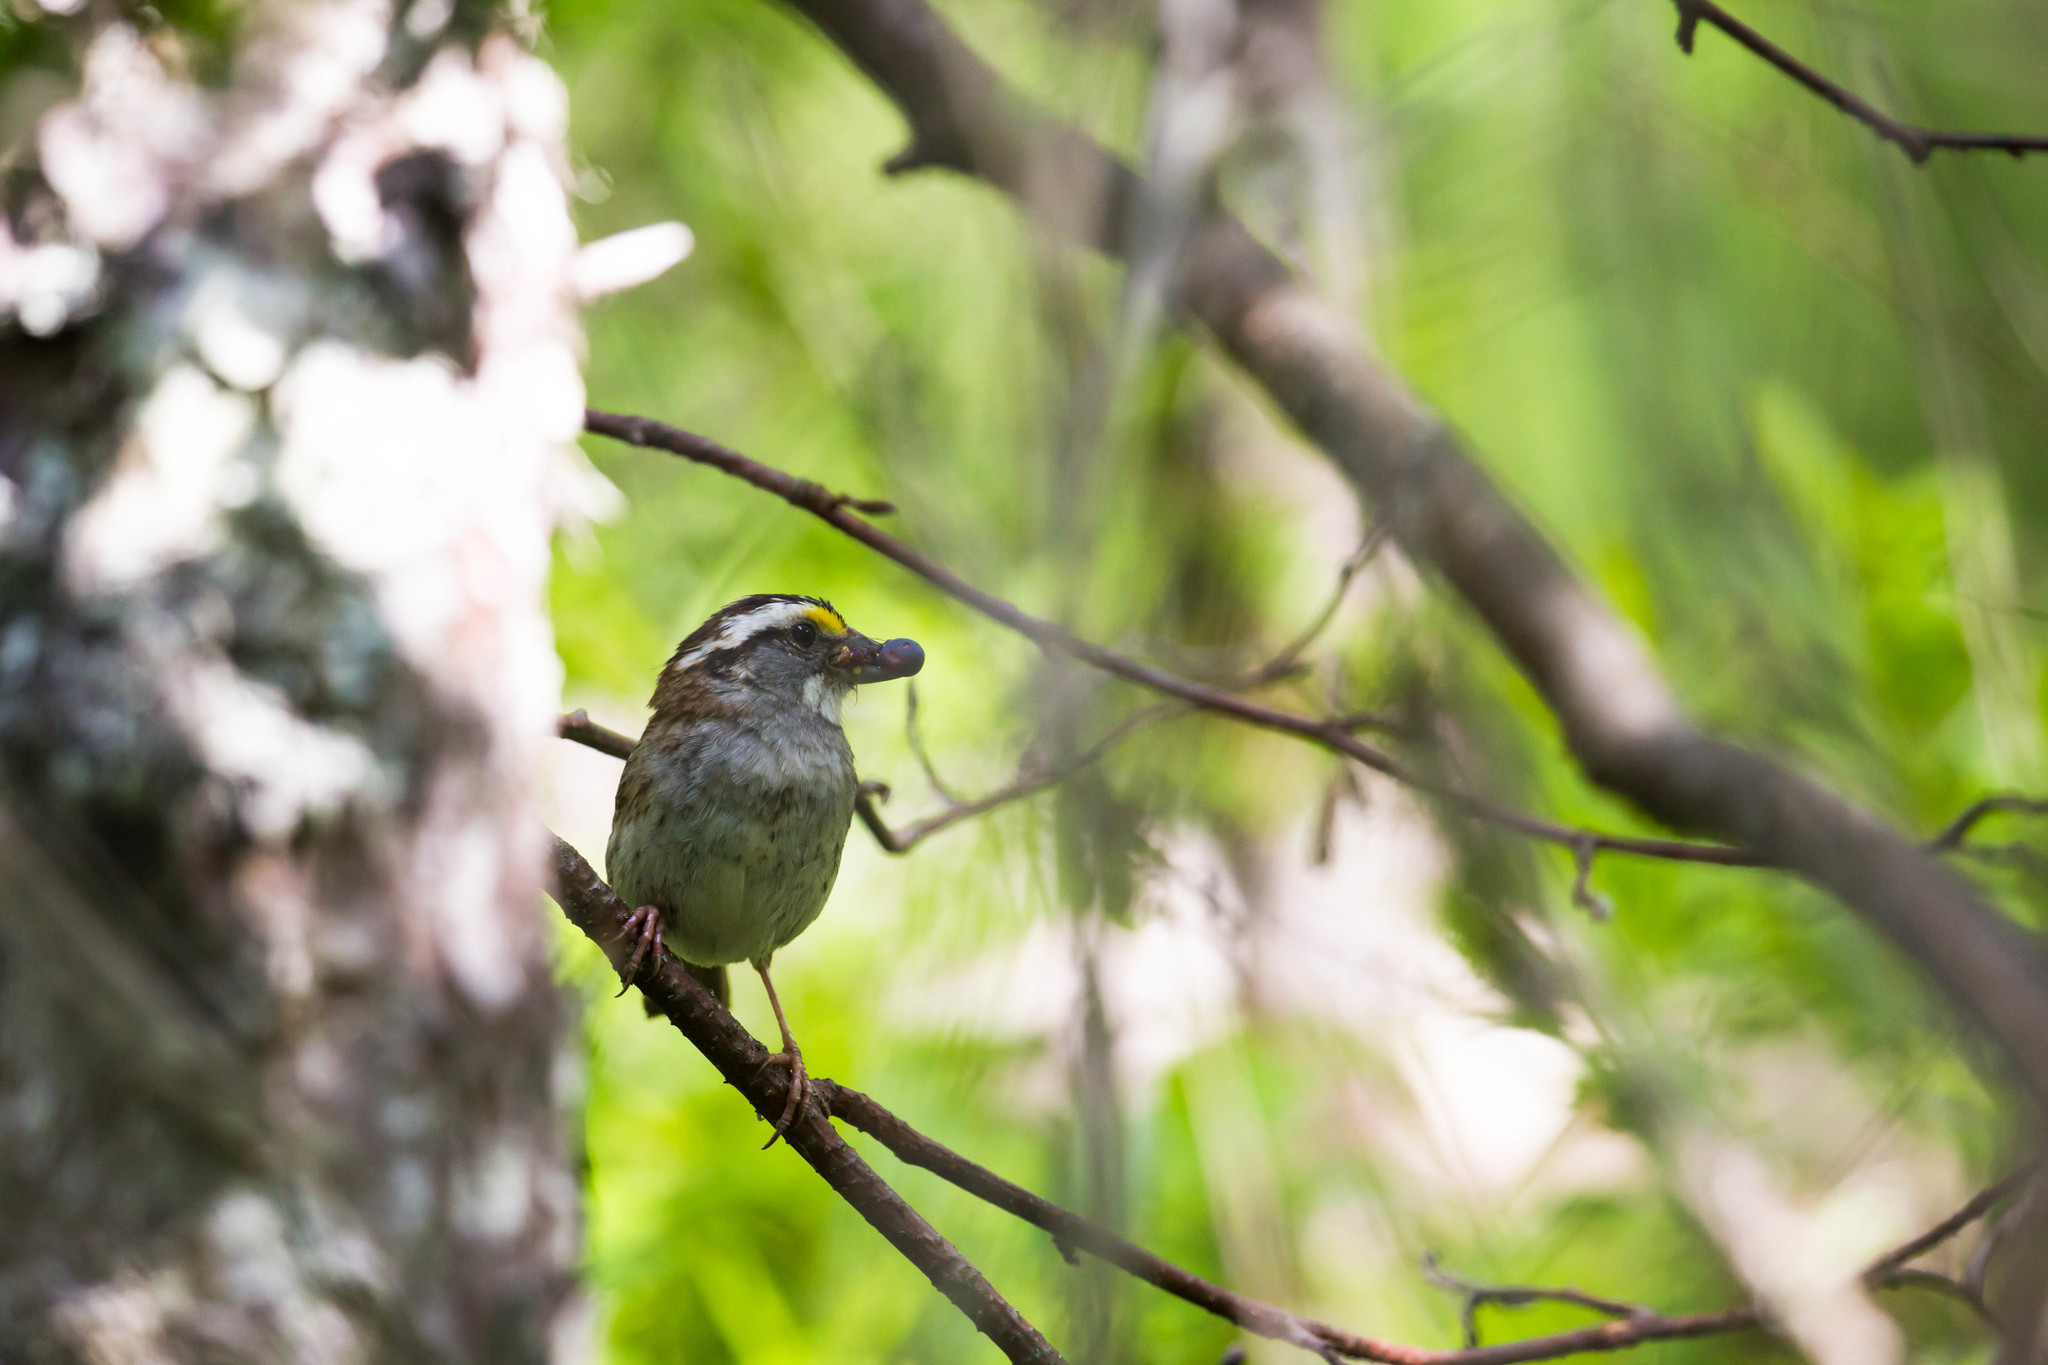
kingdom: Animalia
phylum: Chordata
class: Aves
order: Passeriformes
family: Passerellidae
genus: Zonotrichia
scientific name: Zonotrichia albicollis
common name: White-throated sparrow
